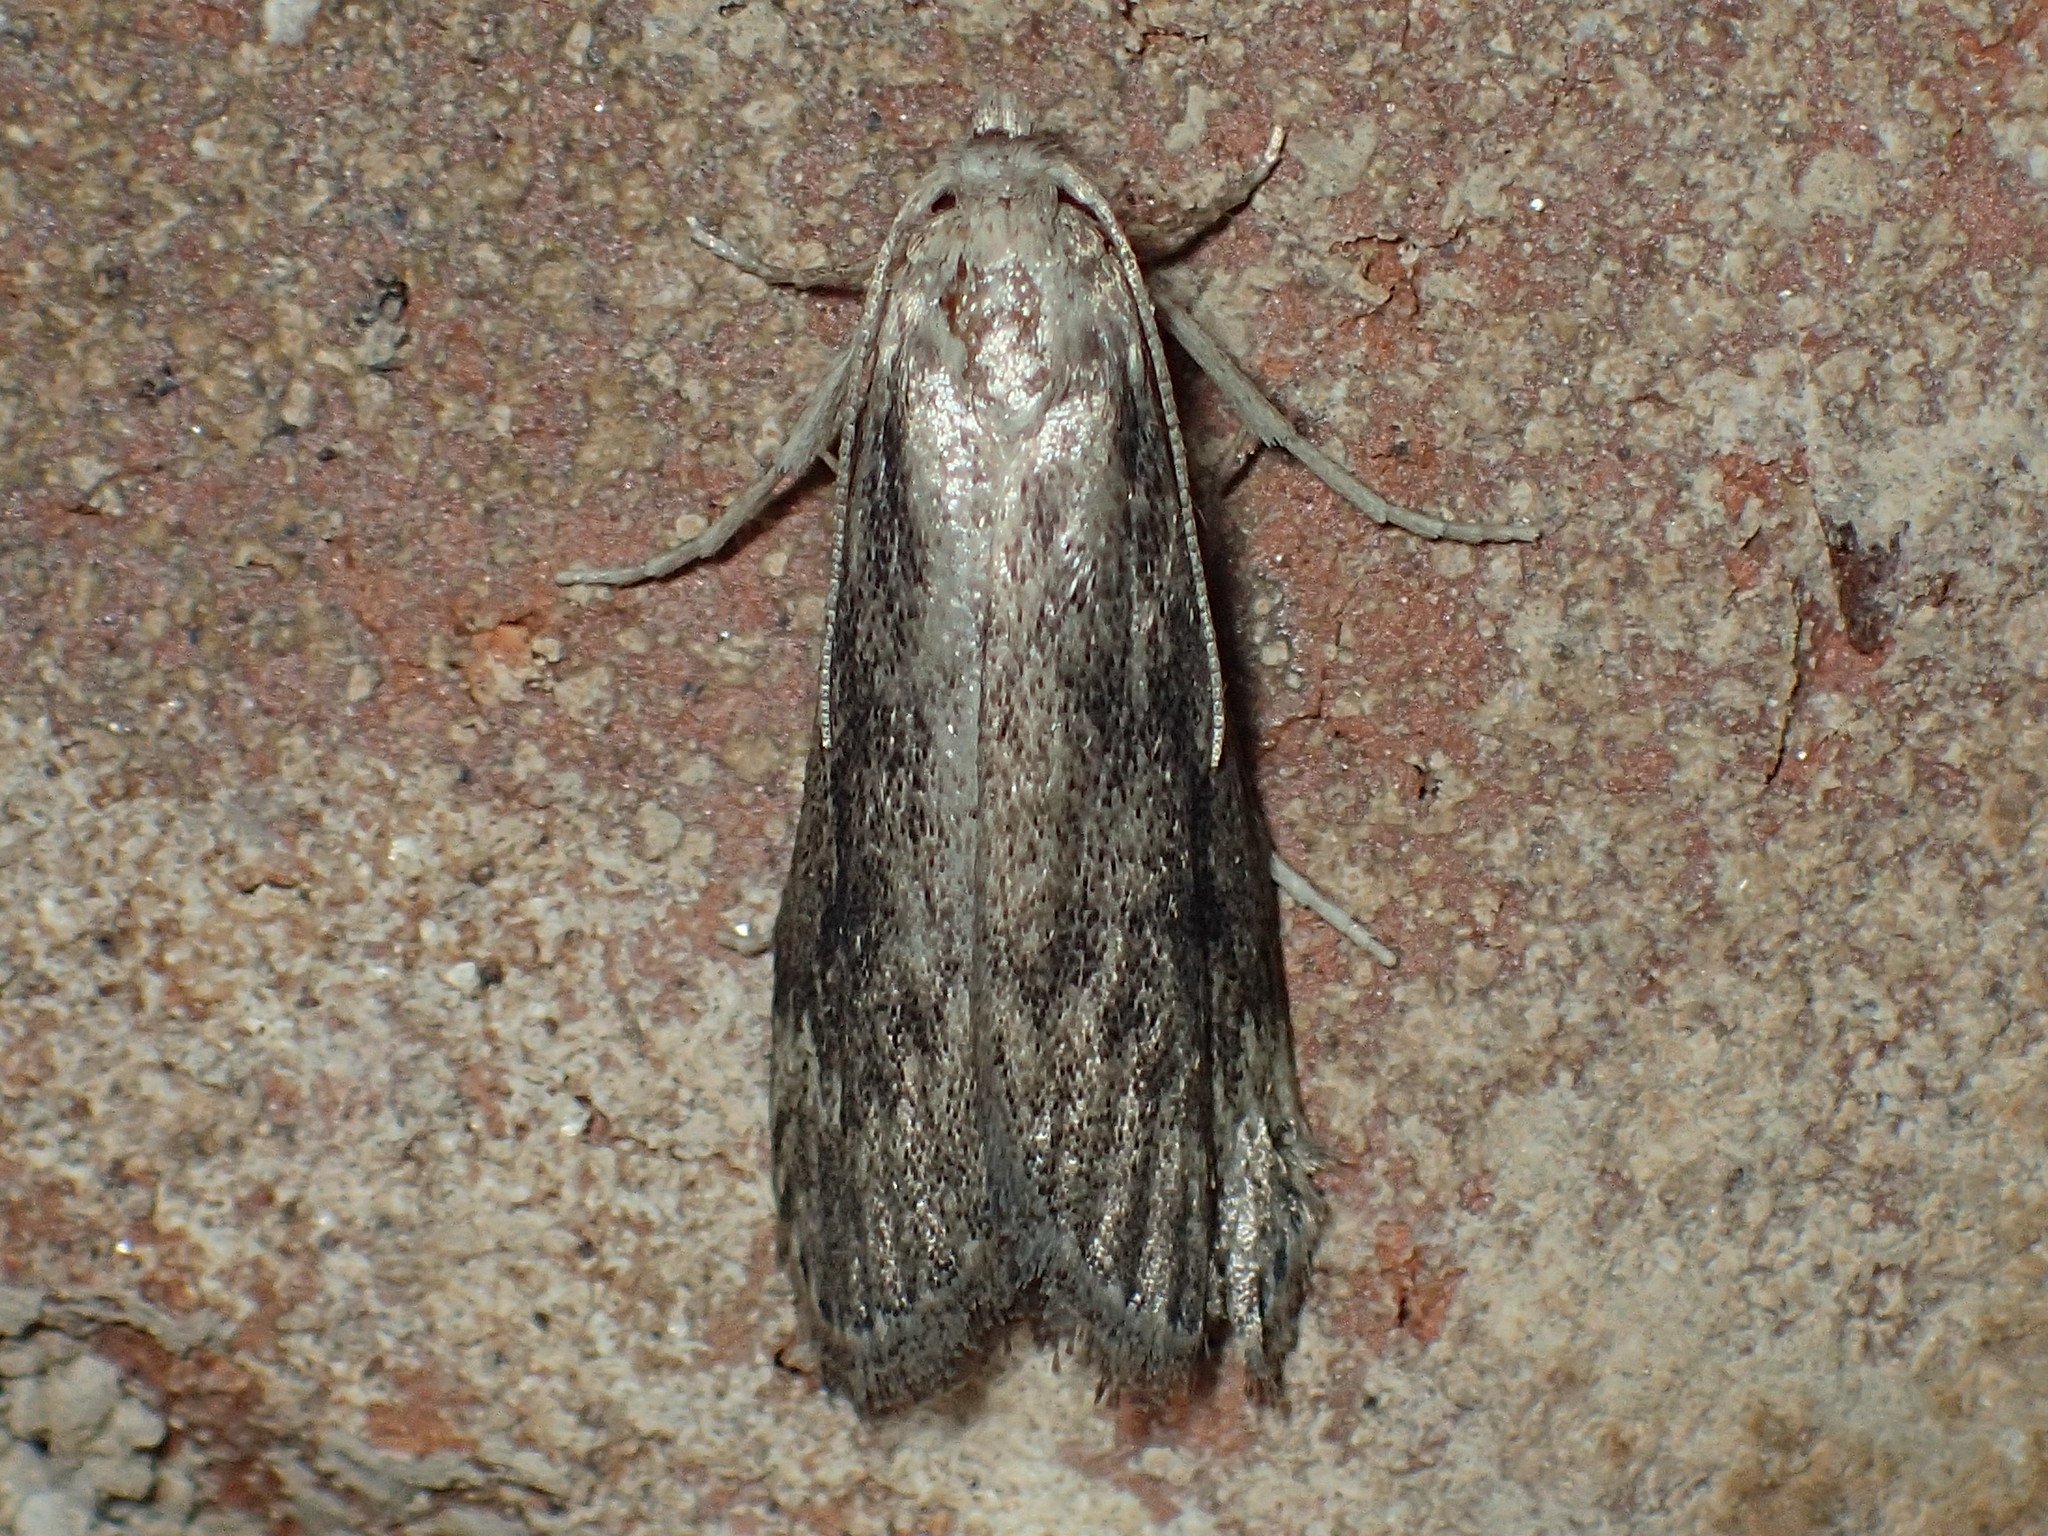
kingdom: Animalia
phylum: Arthropoda
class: Insecta
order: Lepidoptera
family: Pyralidae
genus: Aphomia
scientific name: Aphomia terrenella
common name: Terrenella bee moth
